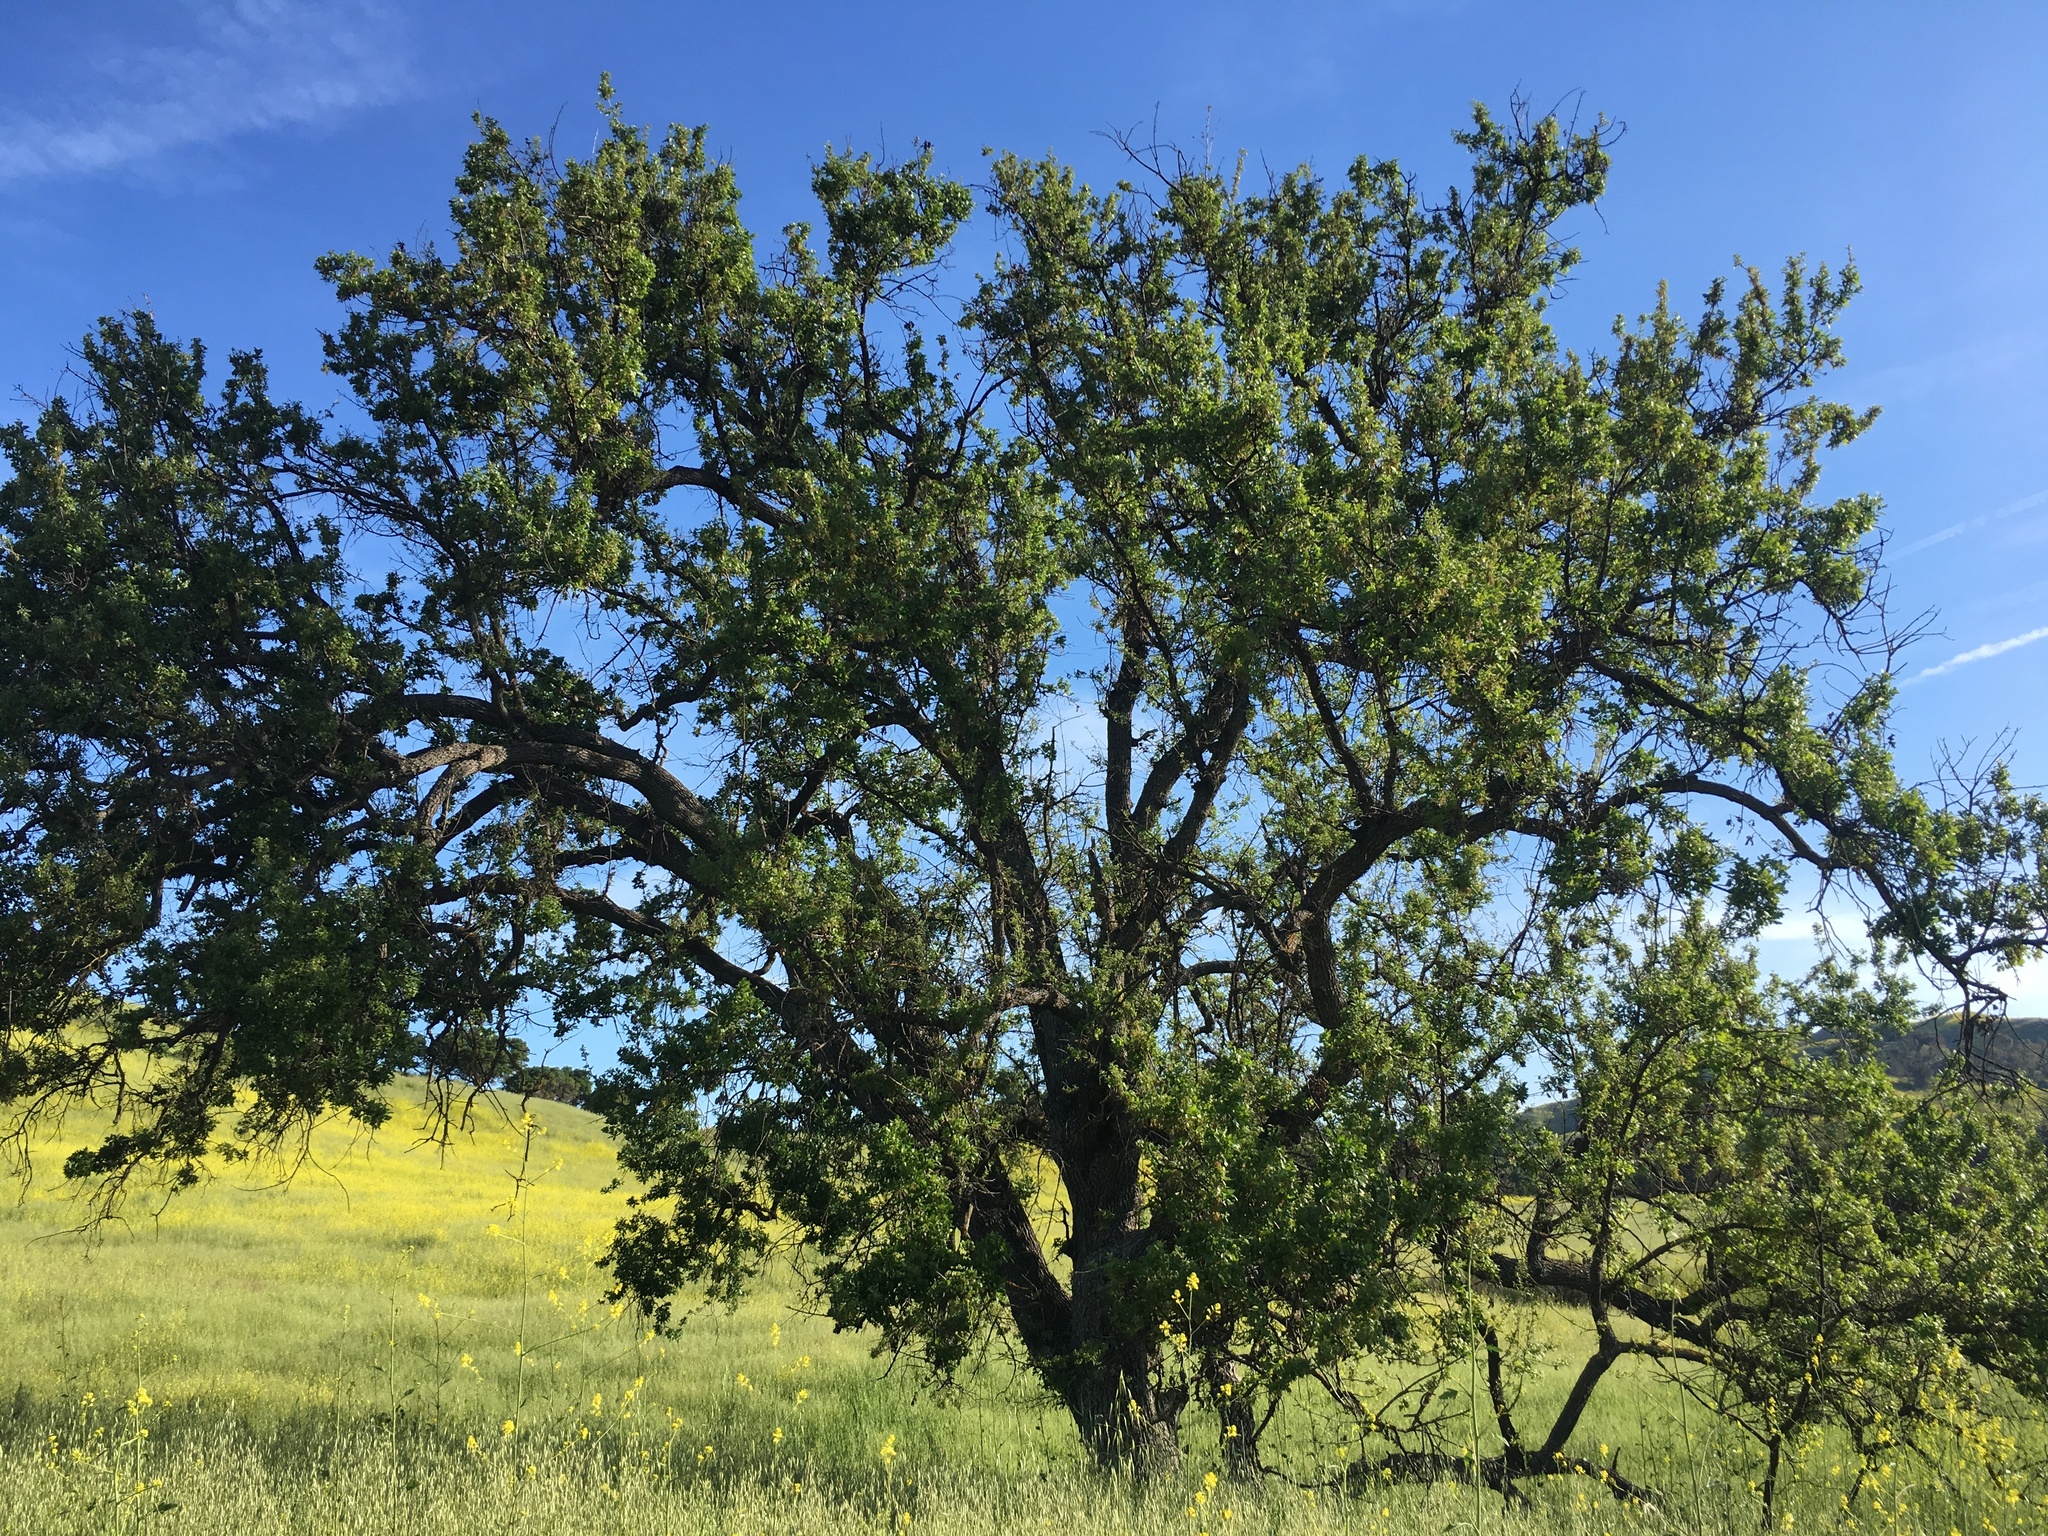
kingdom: Plantae
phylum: Tracheophyta
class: Magnoliopsida
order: Fagales
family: Fagaceae
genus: Quercus
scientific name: Quercus lobata
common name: Valley oak
